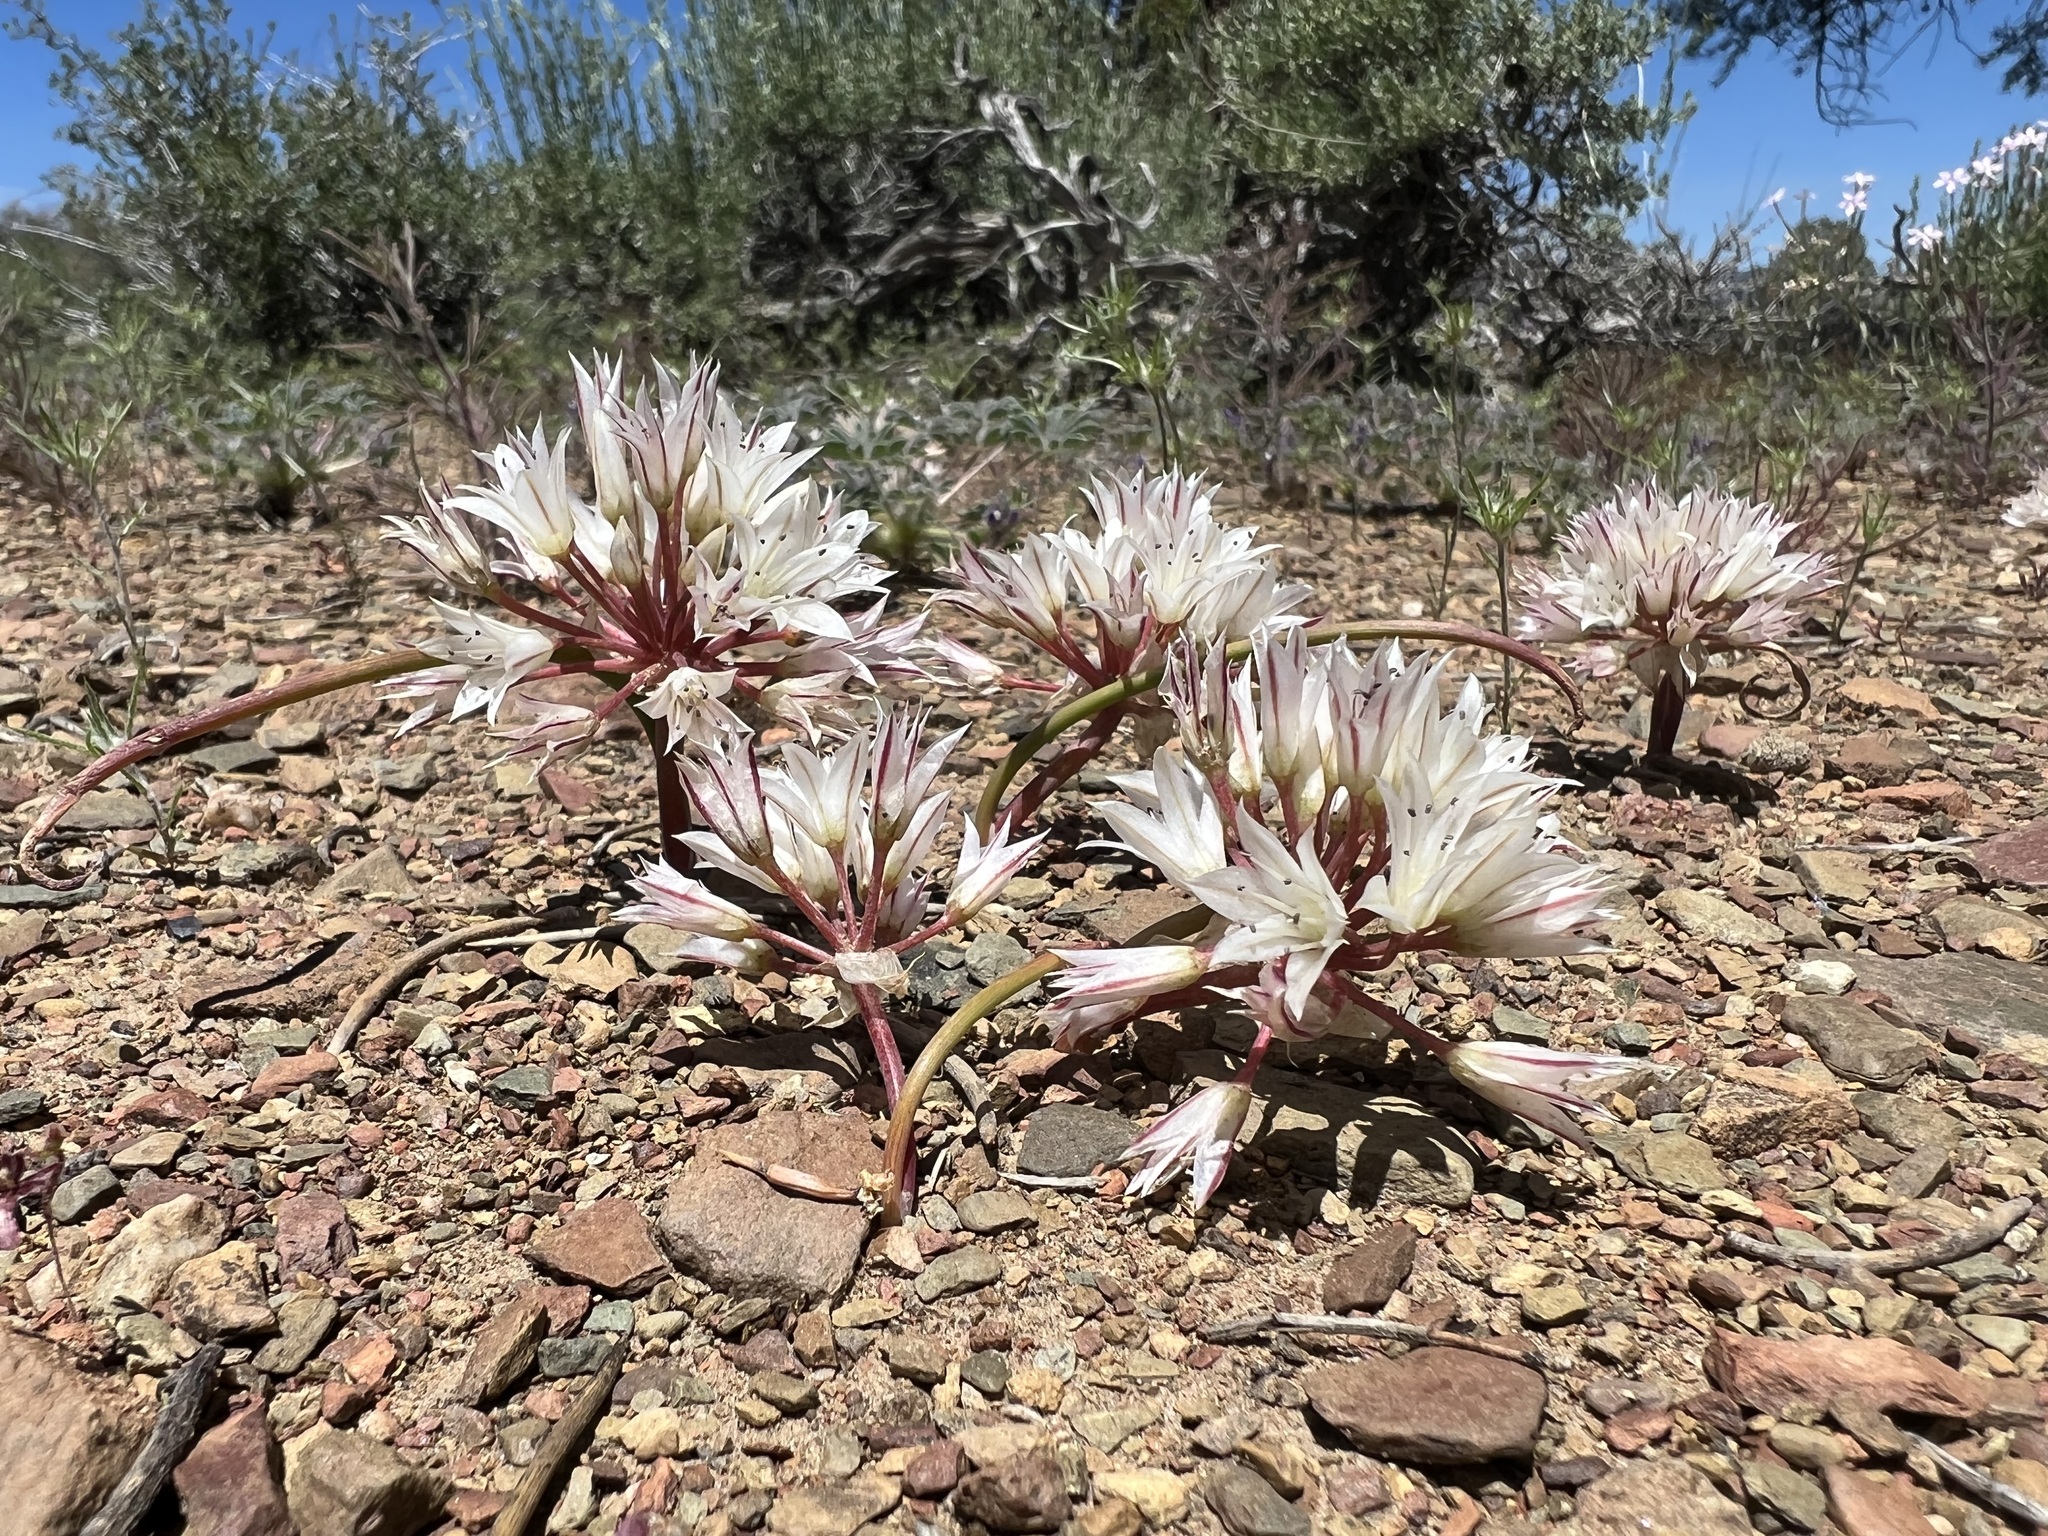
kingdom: Plantae
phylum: Tracheophyta
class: Liliopsida
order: Asparagales
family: Amaryllidaceae
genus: Allium
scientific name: Allium atrorubens
